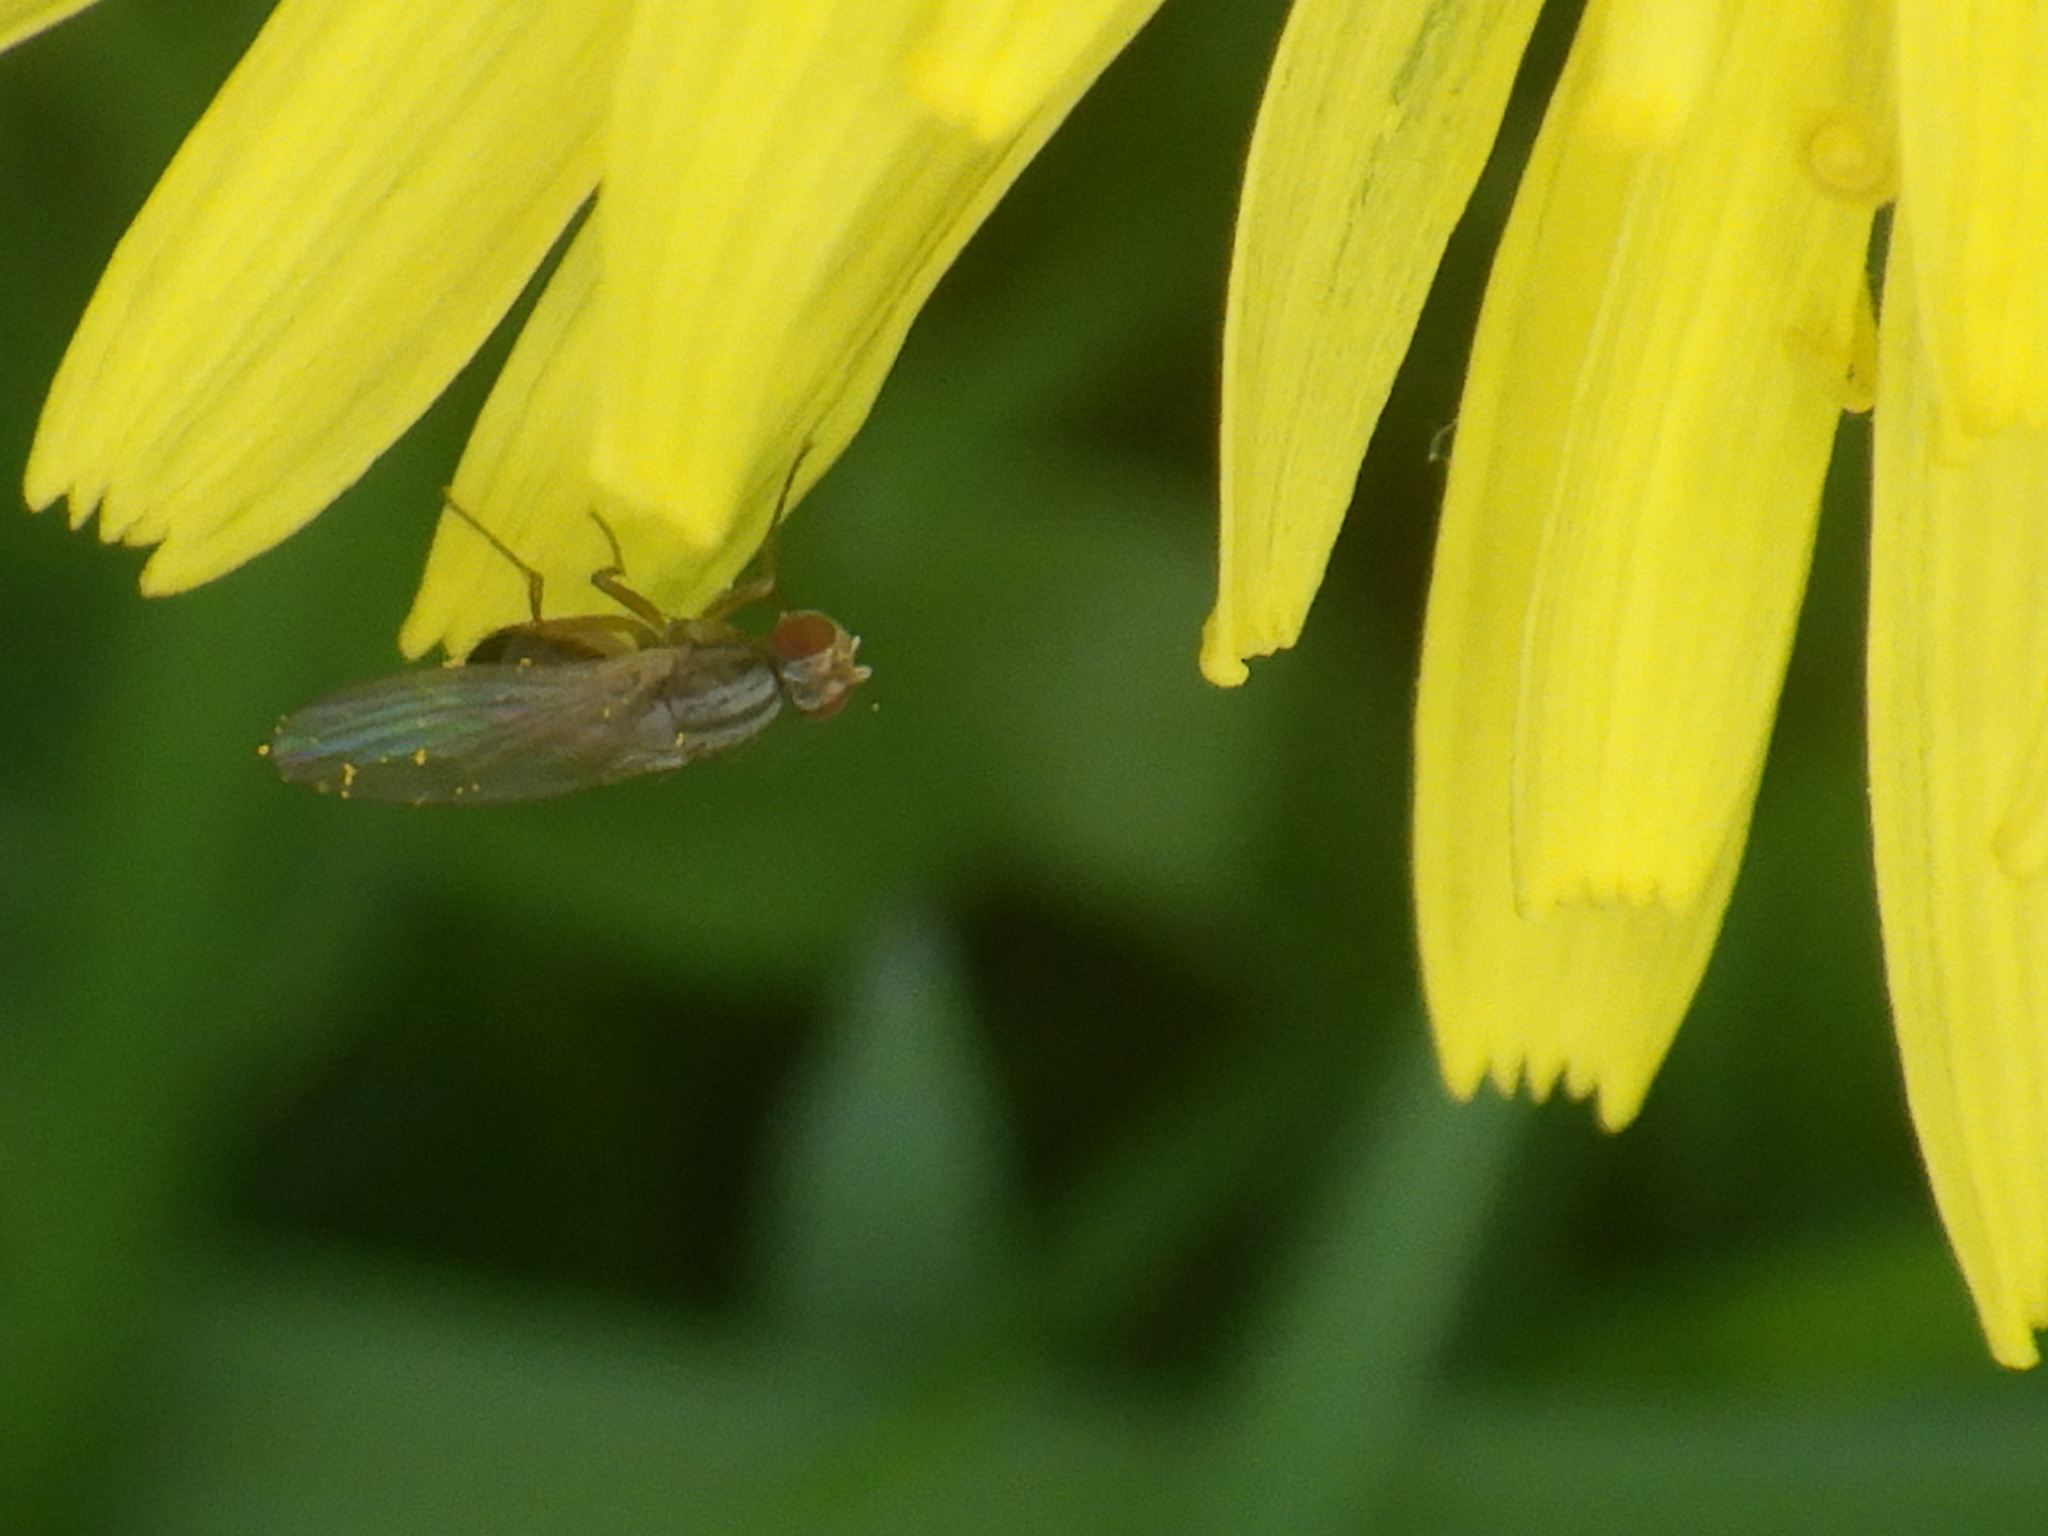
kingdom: Animalia
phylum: Arthropoda
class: Insecta
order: Diptera
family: Drosophilidae
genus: Scaptomyza
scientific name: Scaptomyza pallida
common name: Pomace fly
